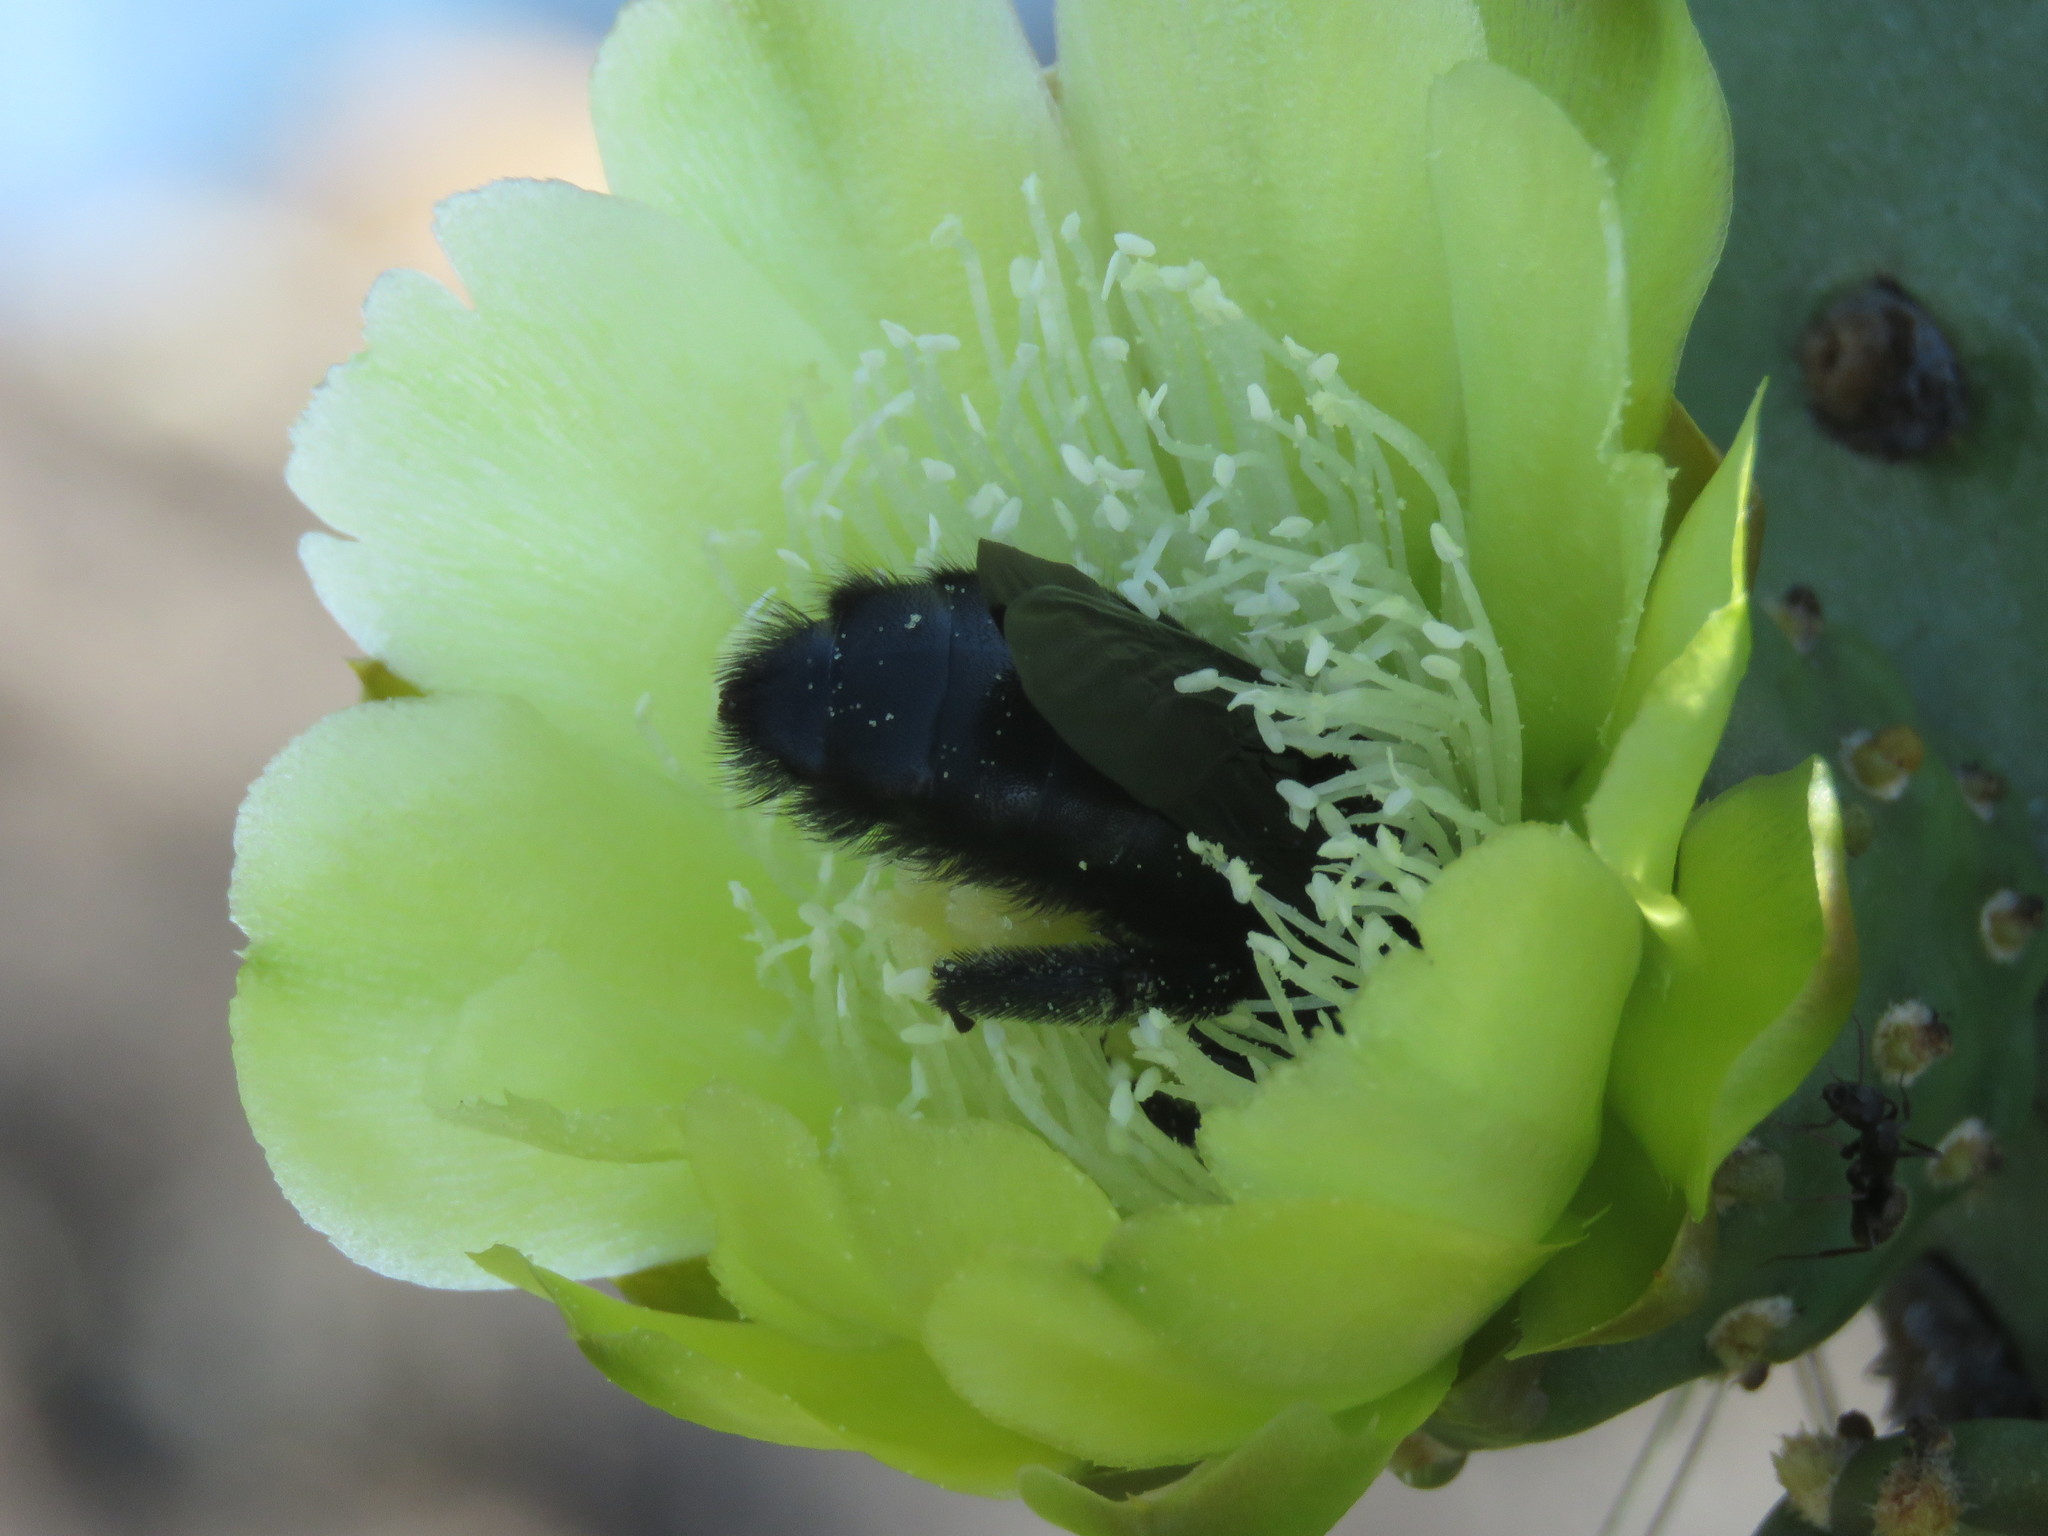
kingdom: Plantae
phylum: Tracheophyta
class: Magnoliopsida
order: Caryophyllales
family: Cactaceae
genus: Opuntia
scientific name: Opuntia galapageia
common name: Galápagos prickly pear
